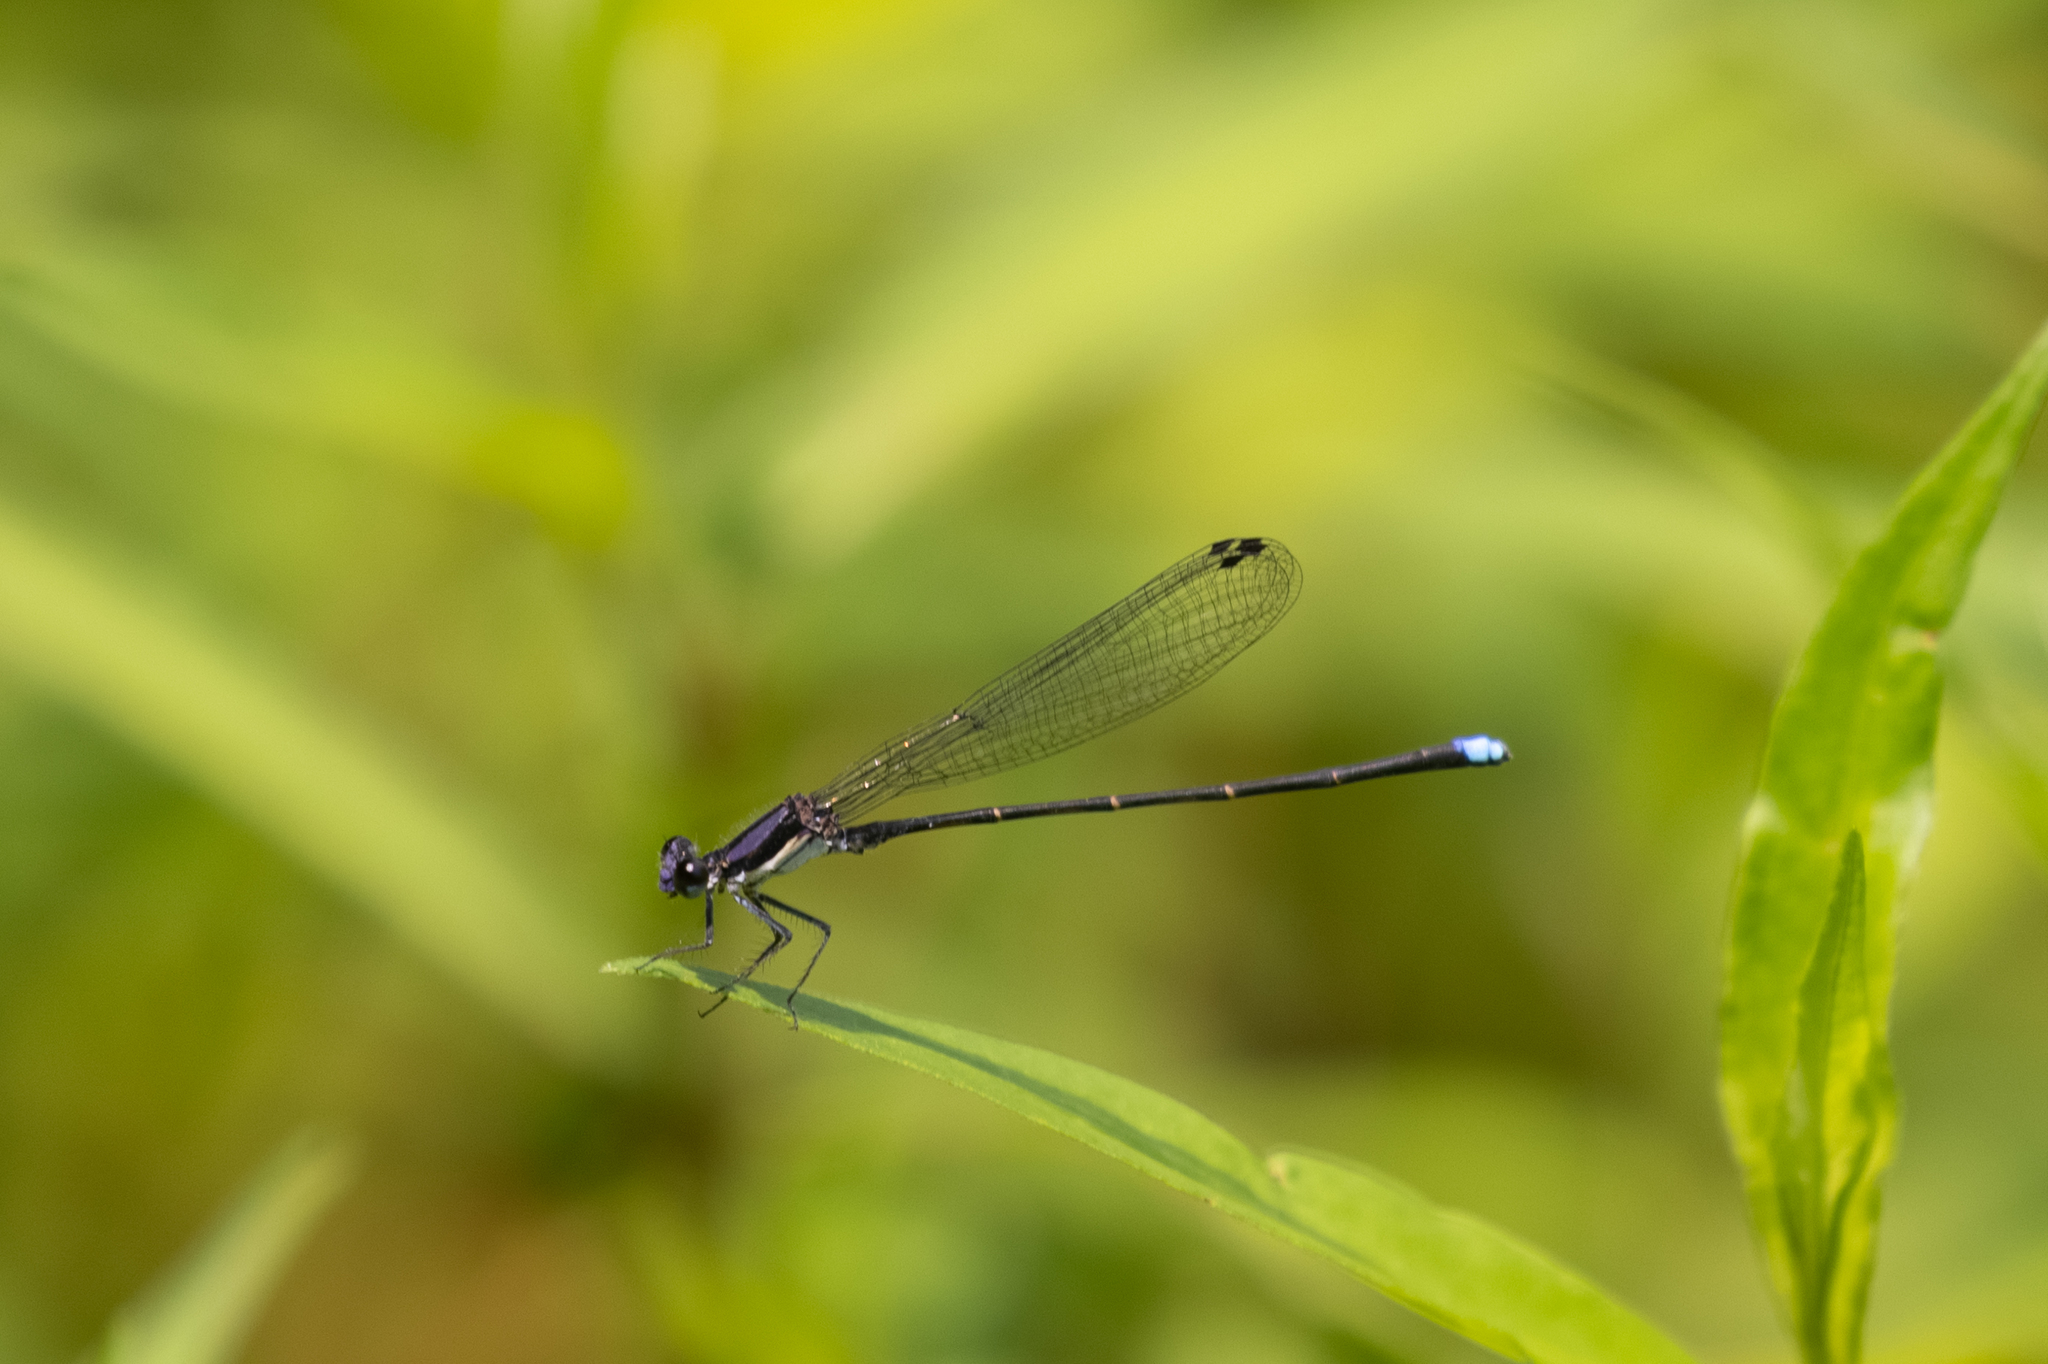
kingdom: Animalia
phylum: Arthropoda
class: Insecta
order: Odonata
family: Coenagrionidae
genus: Argia
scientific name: Argia tibialis
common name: Blue-tipped dancer
